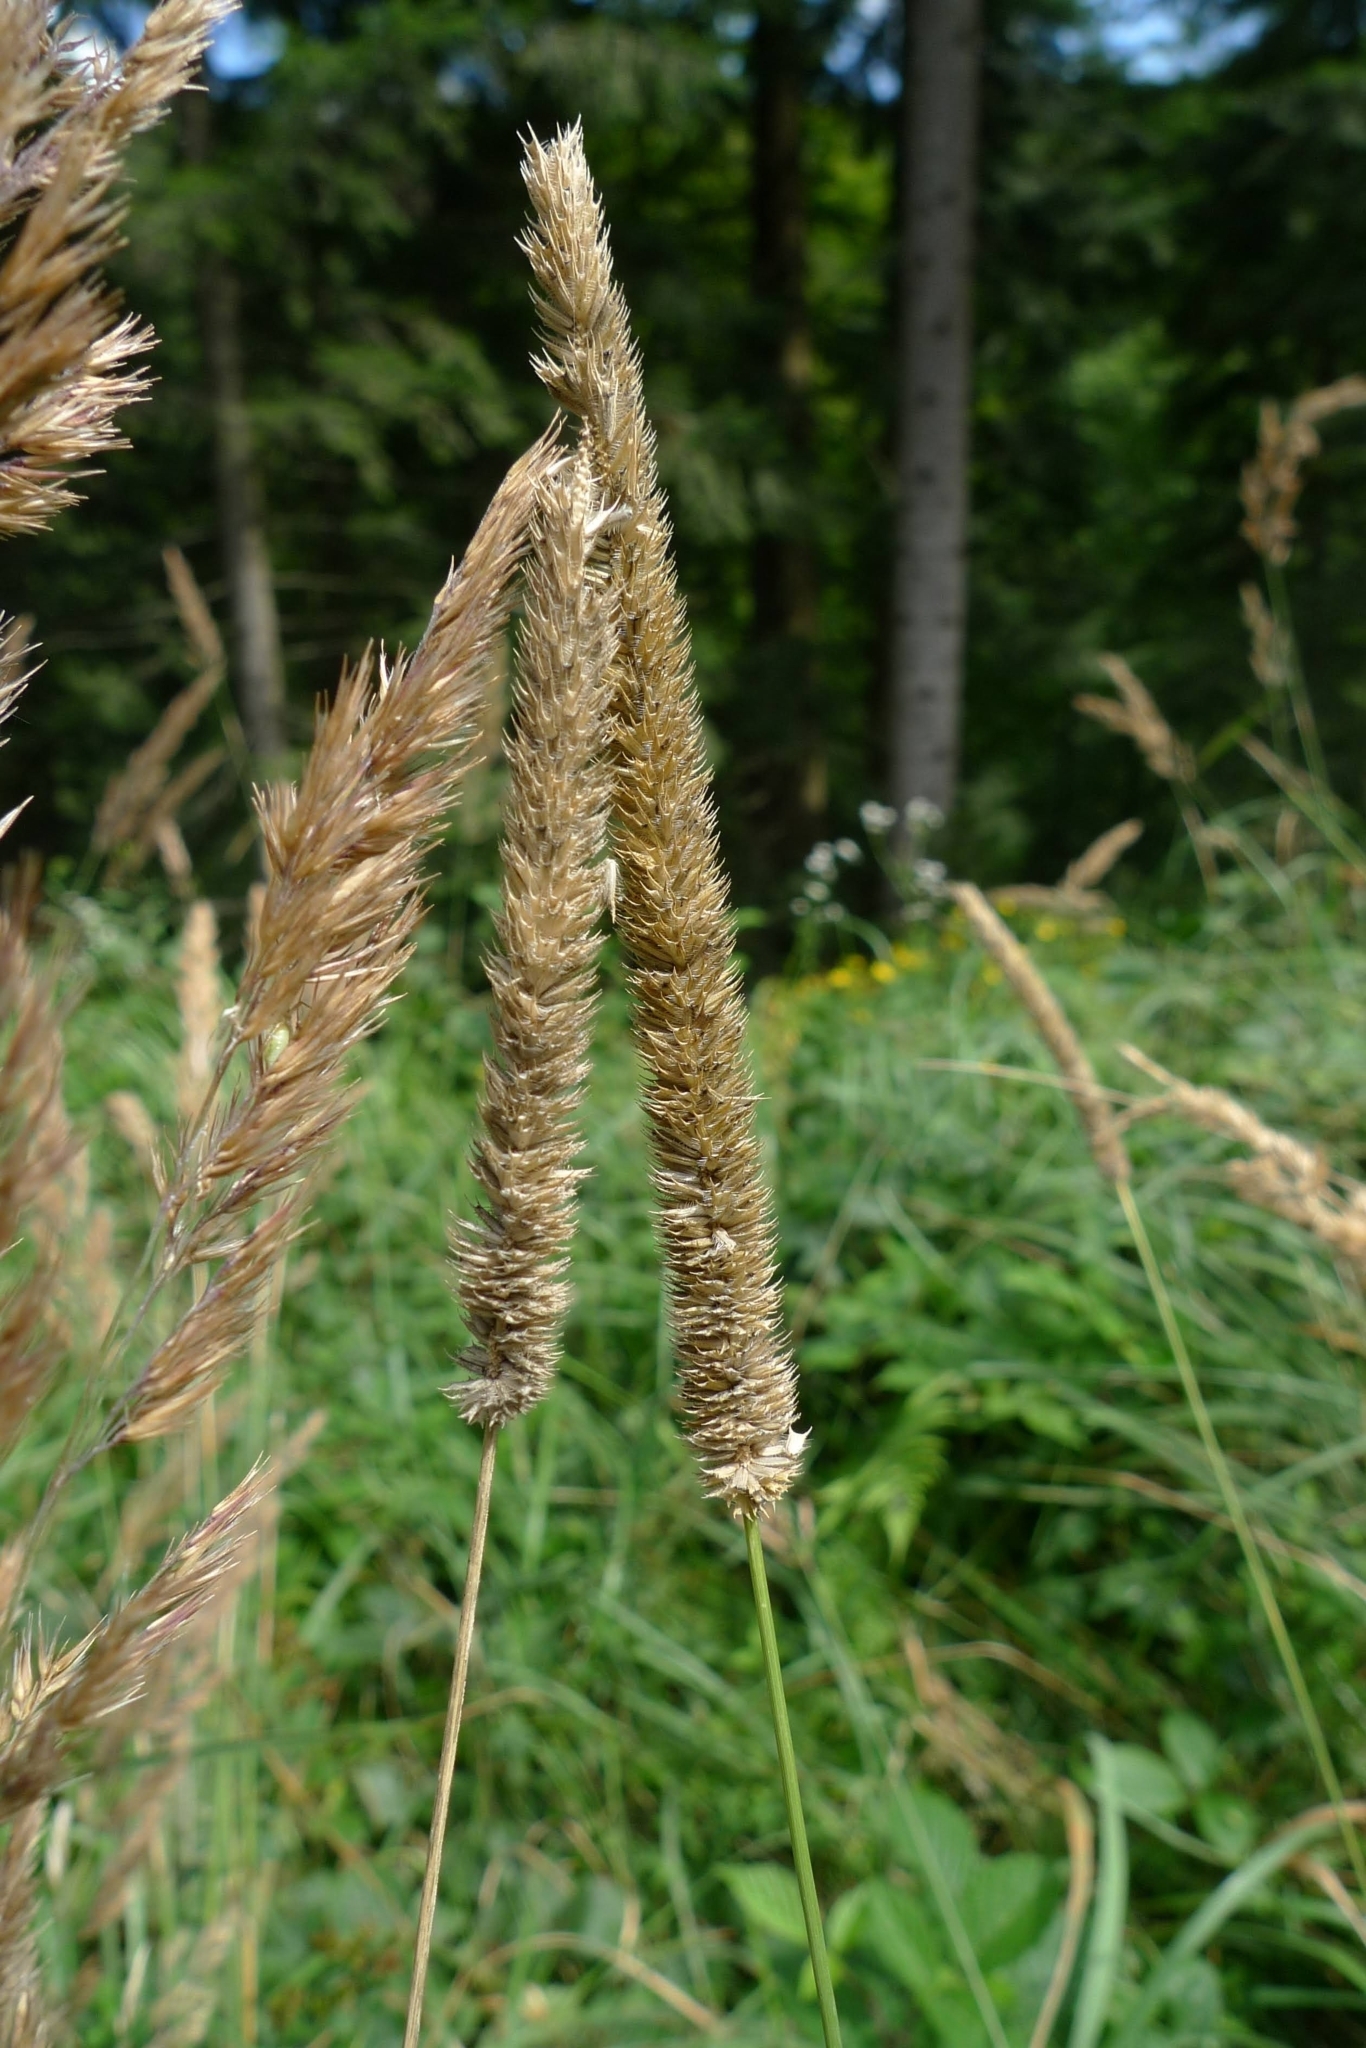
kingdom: Plantae
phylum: Tracheophyta
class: Liliopsida
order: Poales
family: Poaceae
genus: Phleum
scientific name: Phleum pratense
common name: Timothy grass
